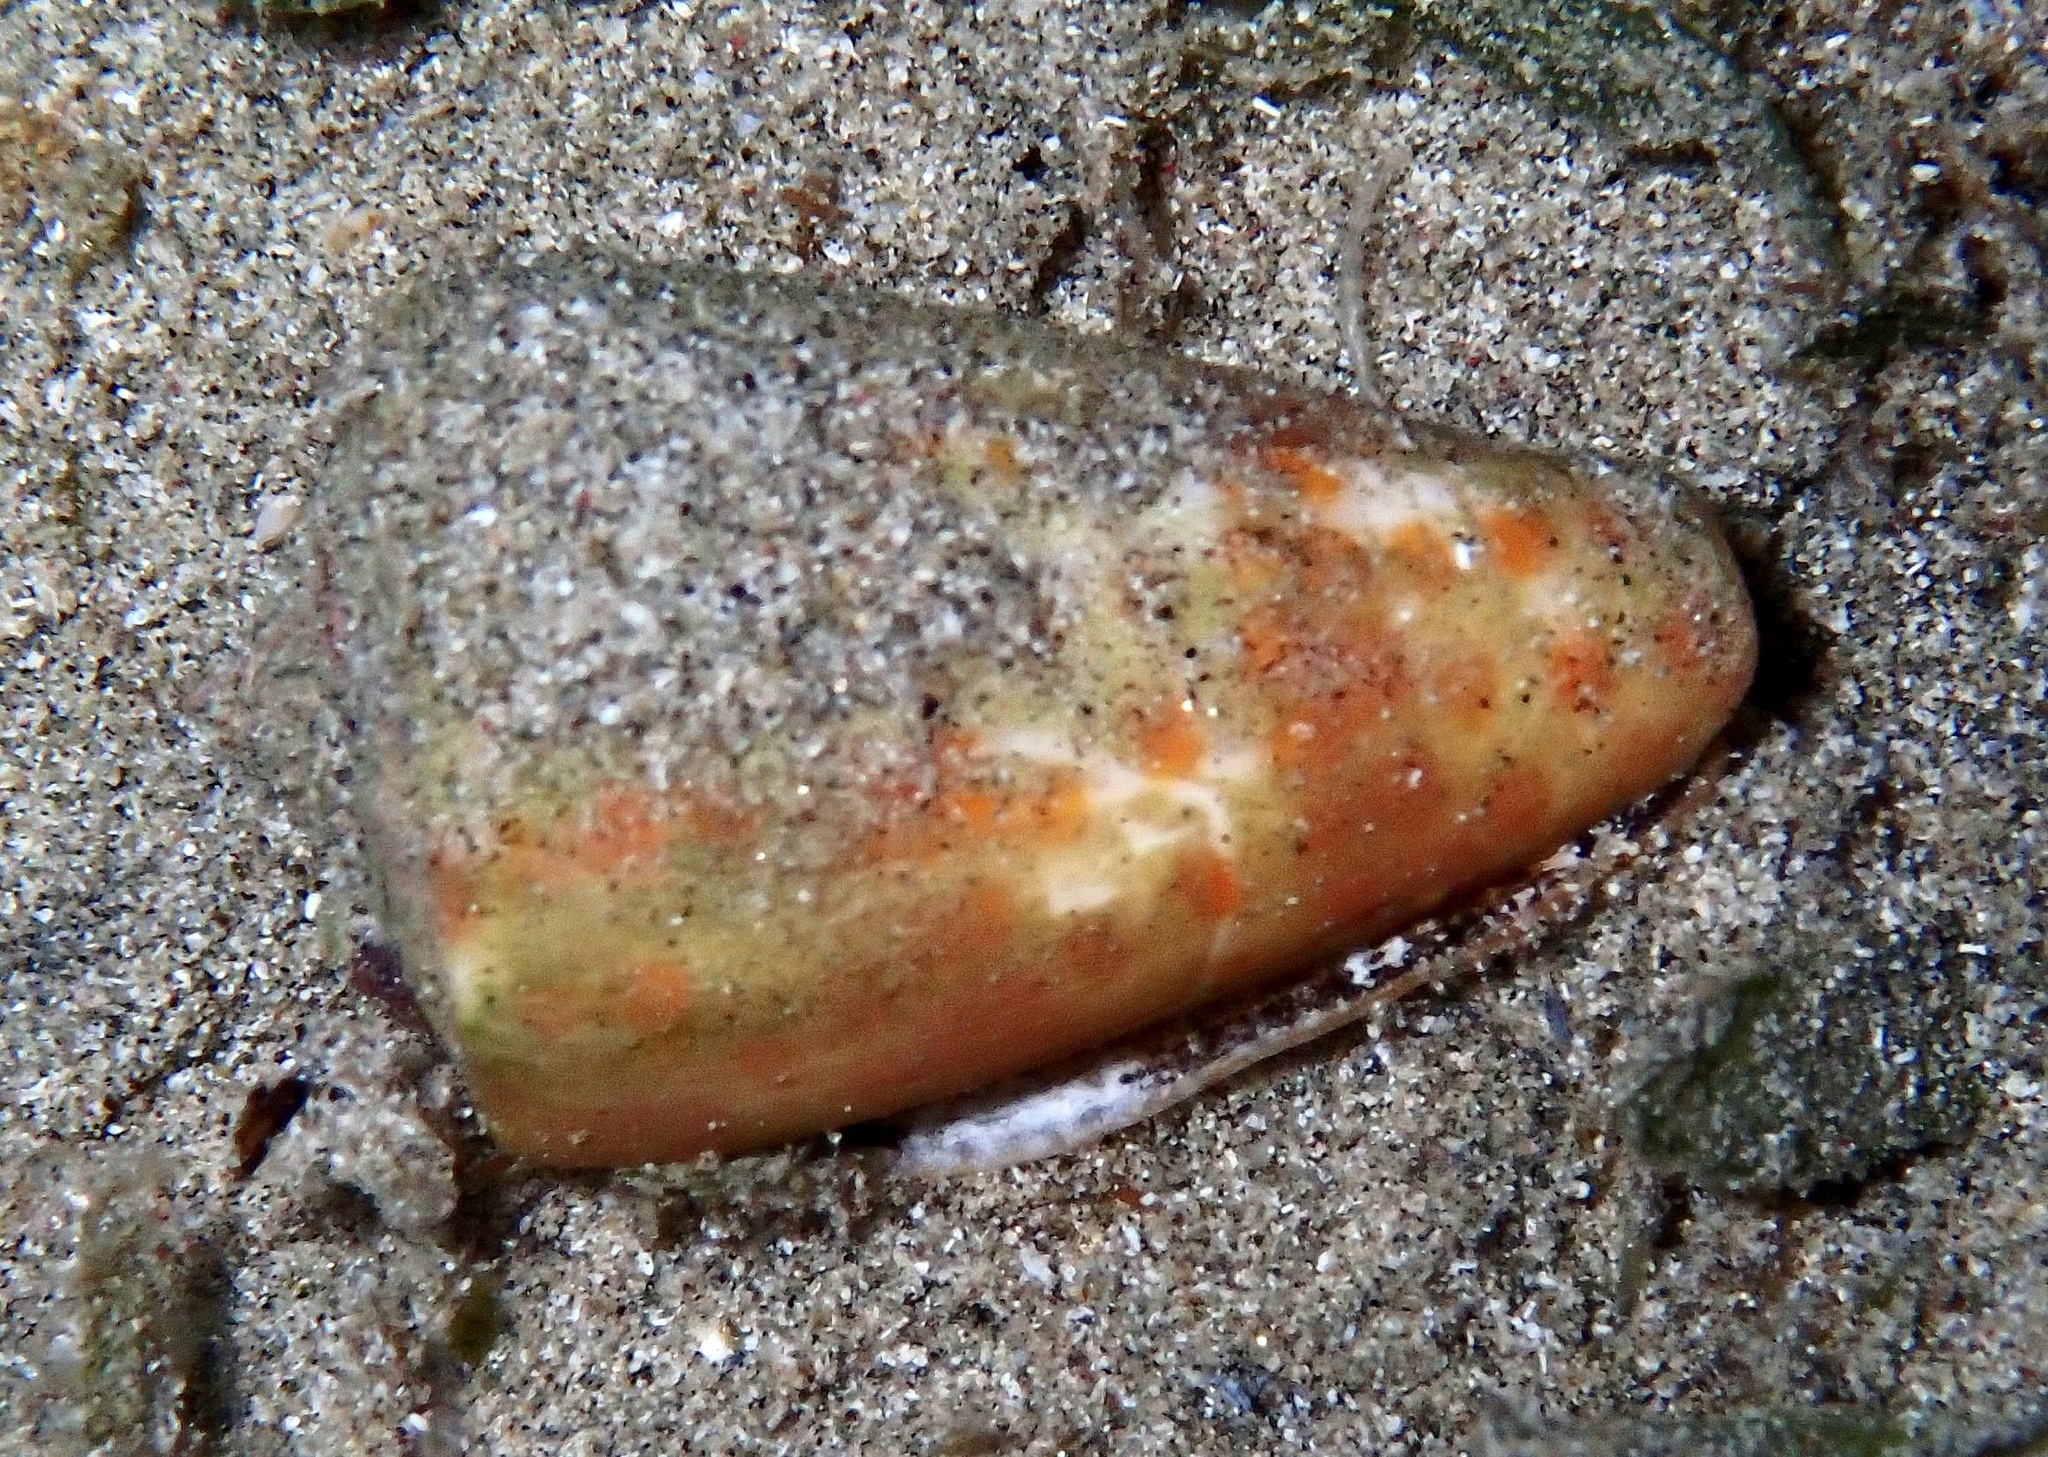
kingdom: Animalia
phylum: Mollusca
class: Gastropoda
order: Neogastropoda
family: Conidae
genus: Conus
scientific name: Conus tessulatus
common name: Tessellate cone
